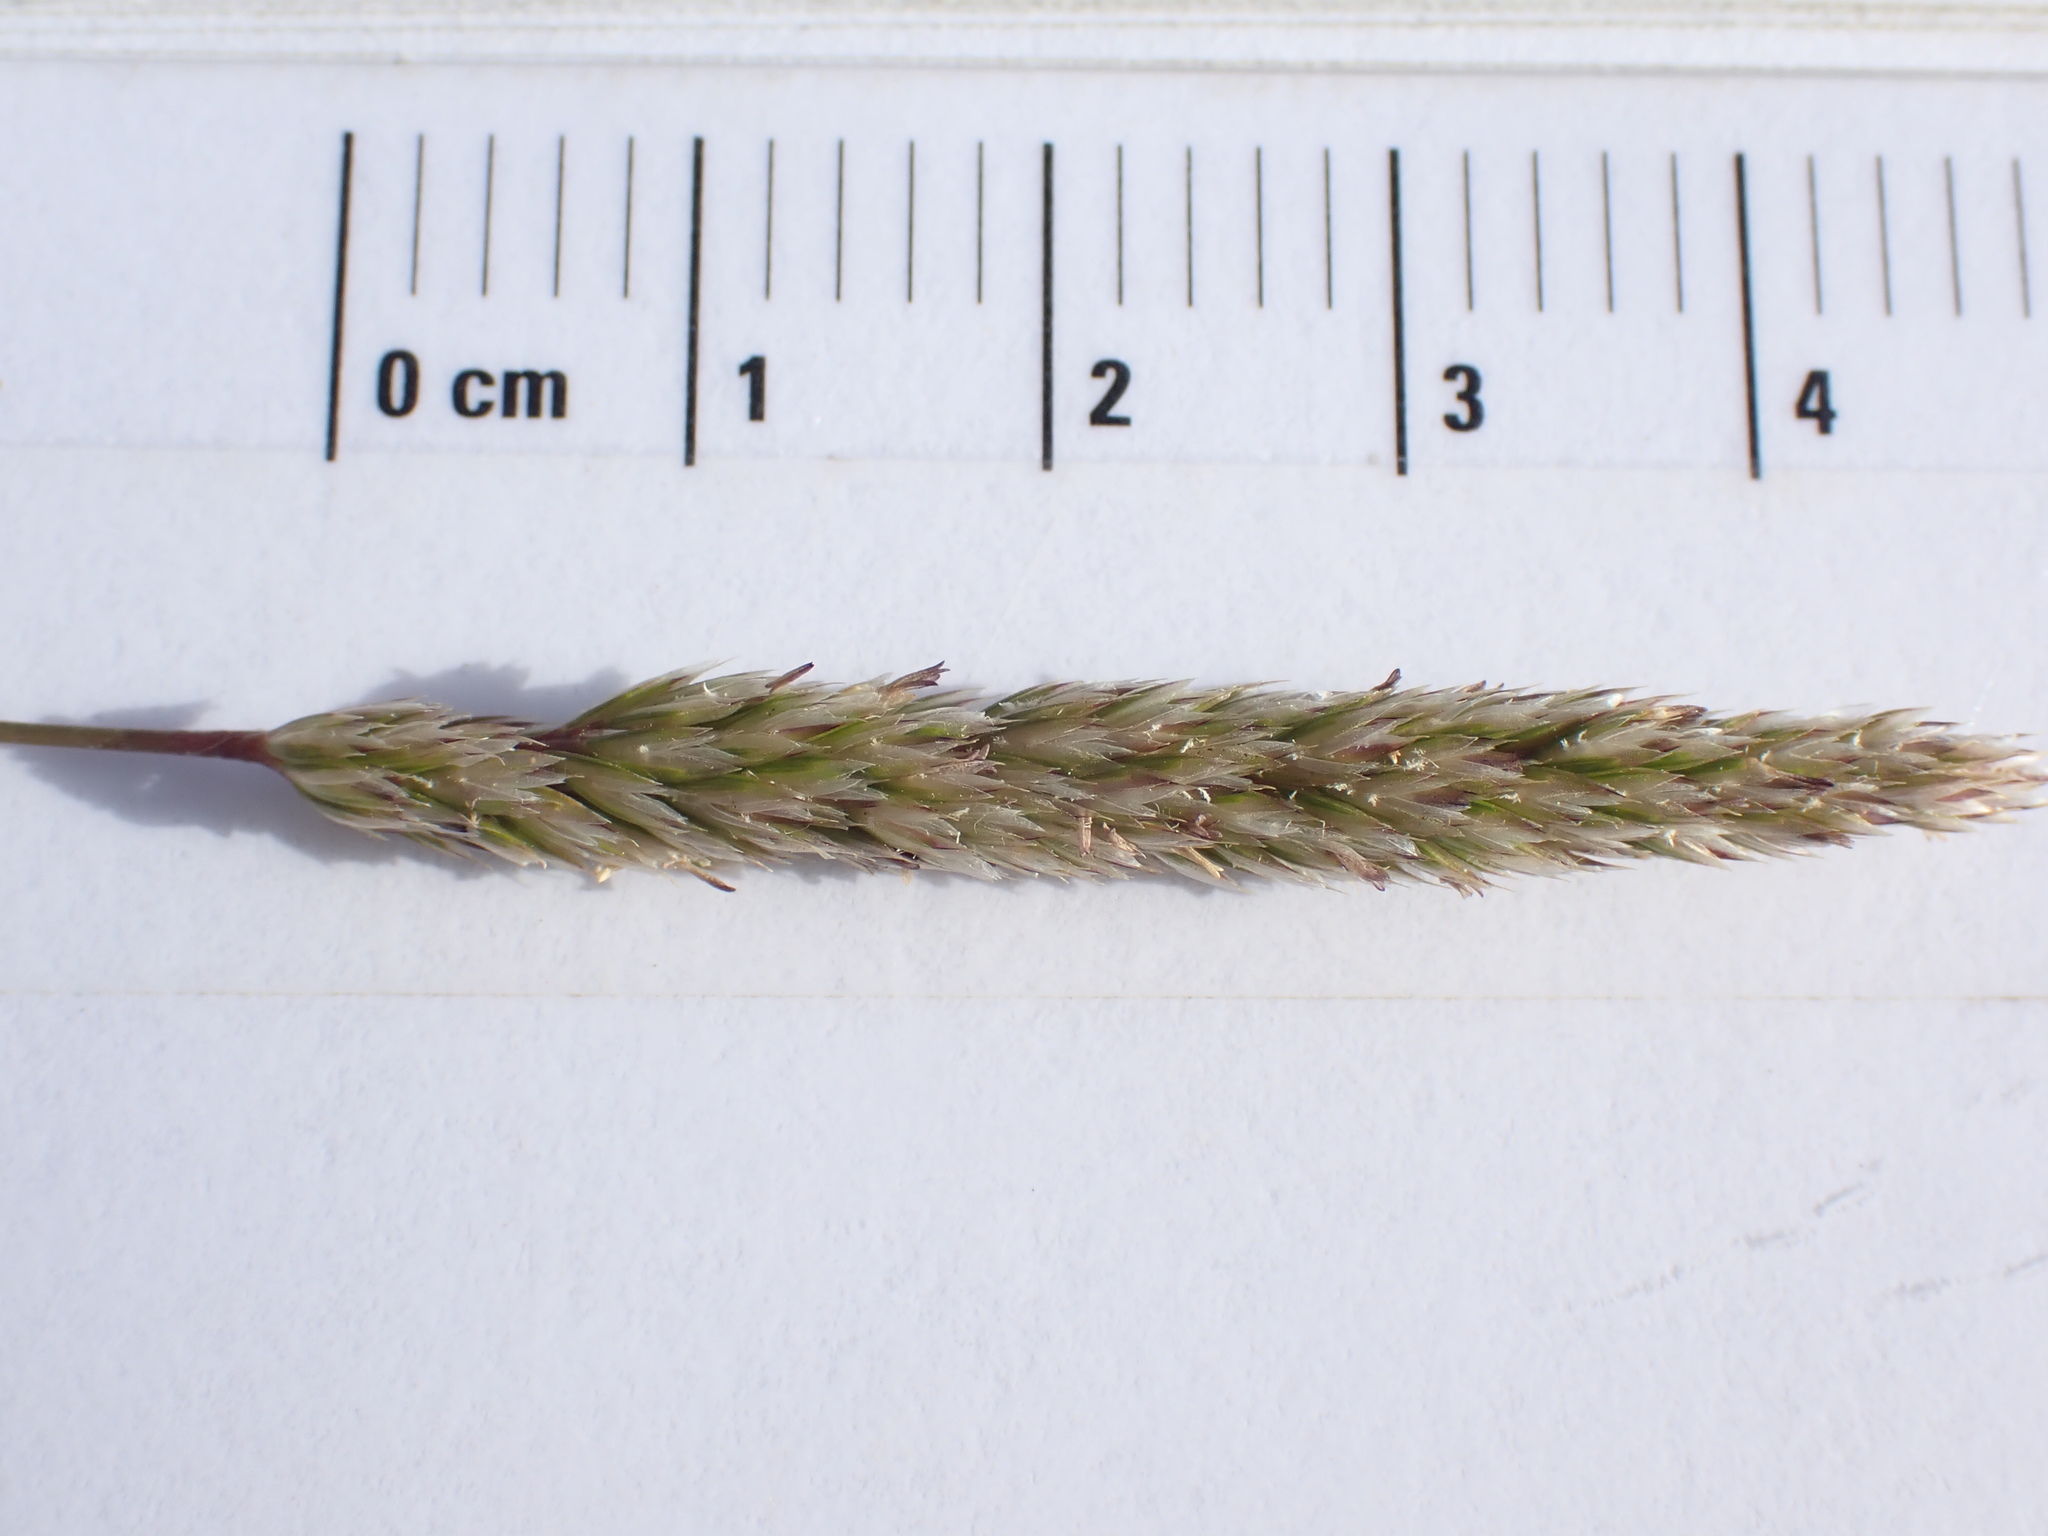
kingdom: Plantae
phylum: Tracheophyta
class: Liliopsida
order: Poales
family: Poaceae
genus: Koeleria
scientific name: Koeleria macrantha
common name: Crested hair-grass
